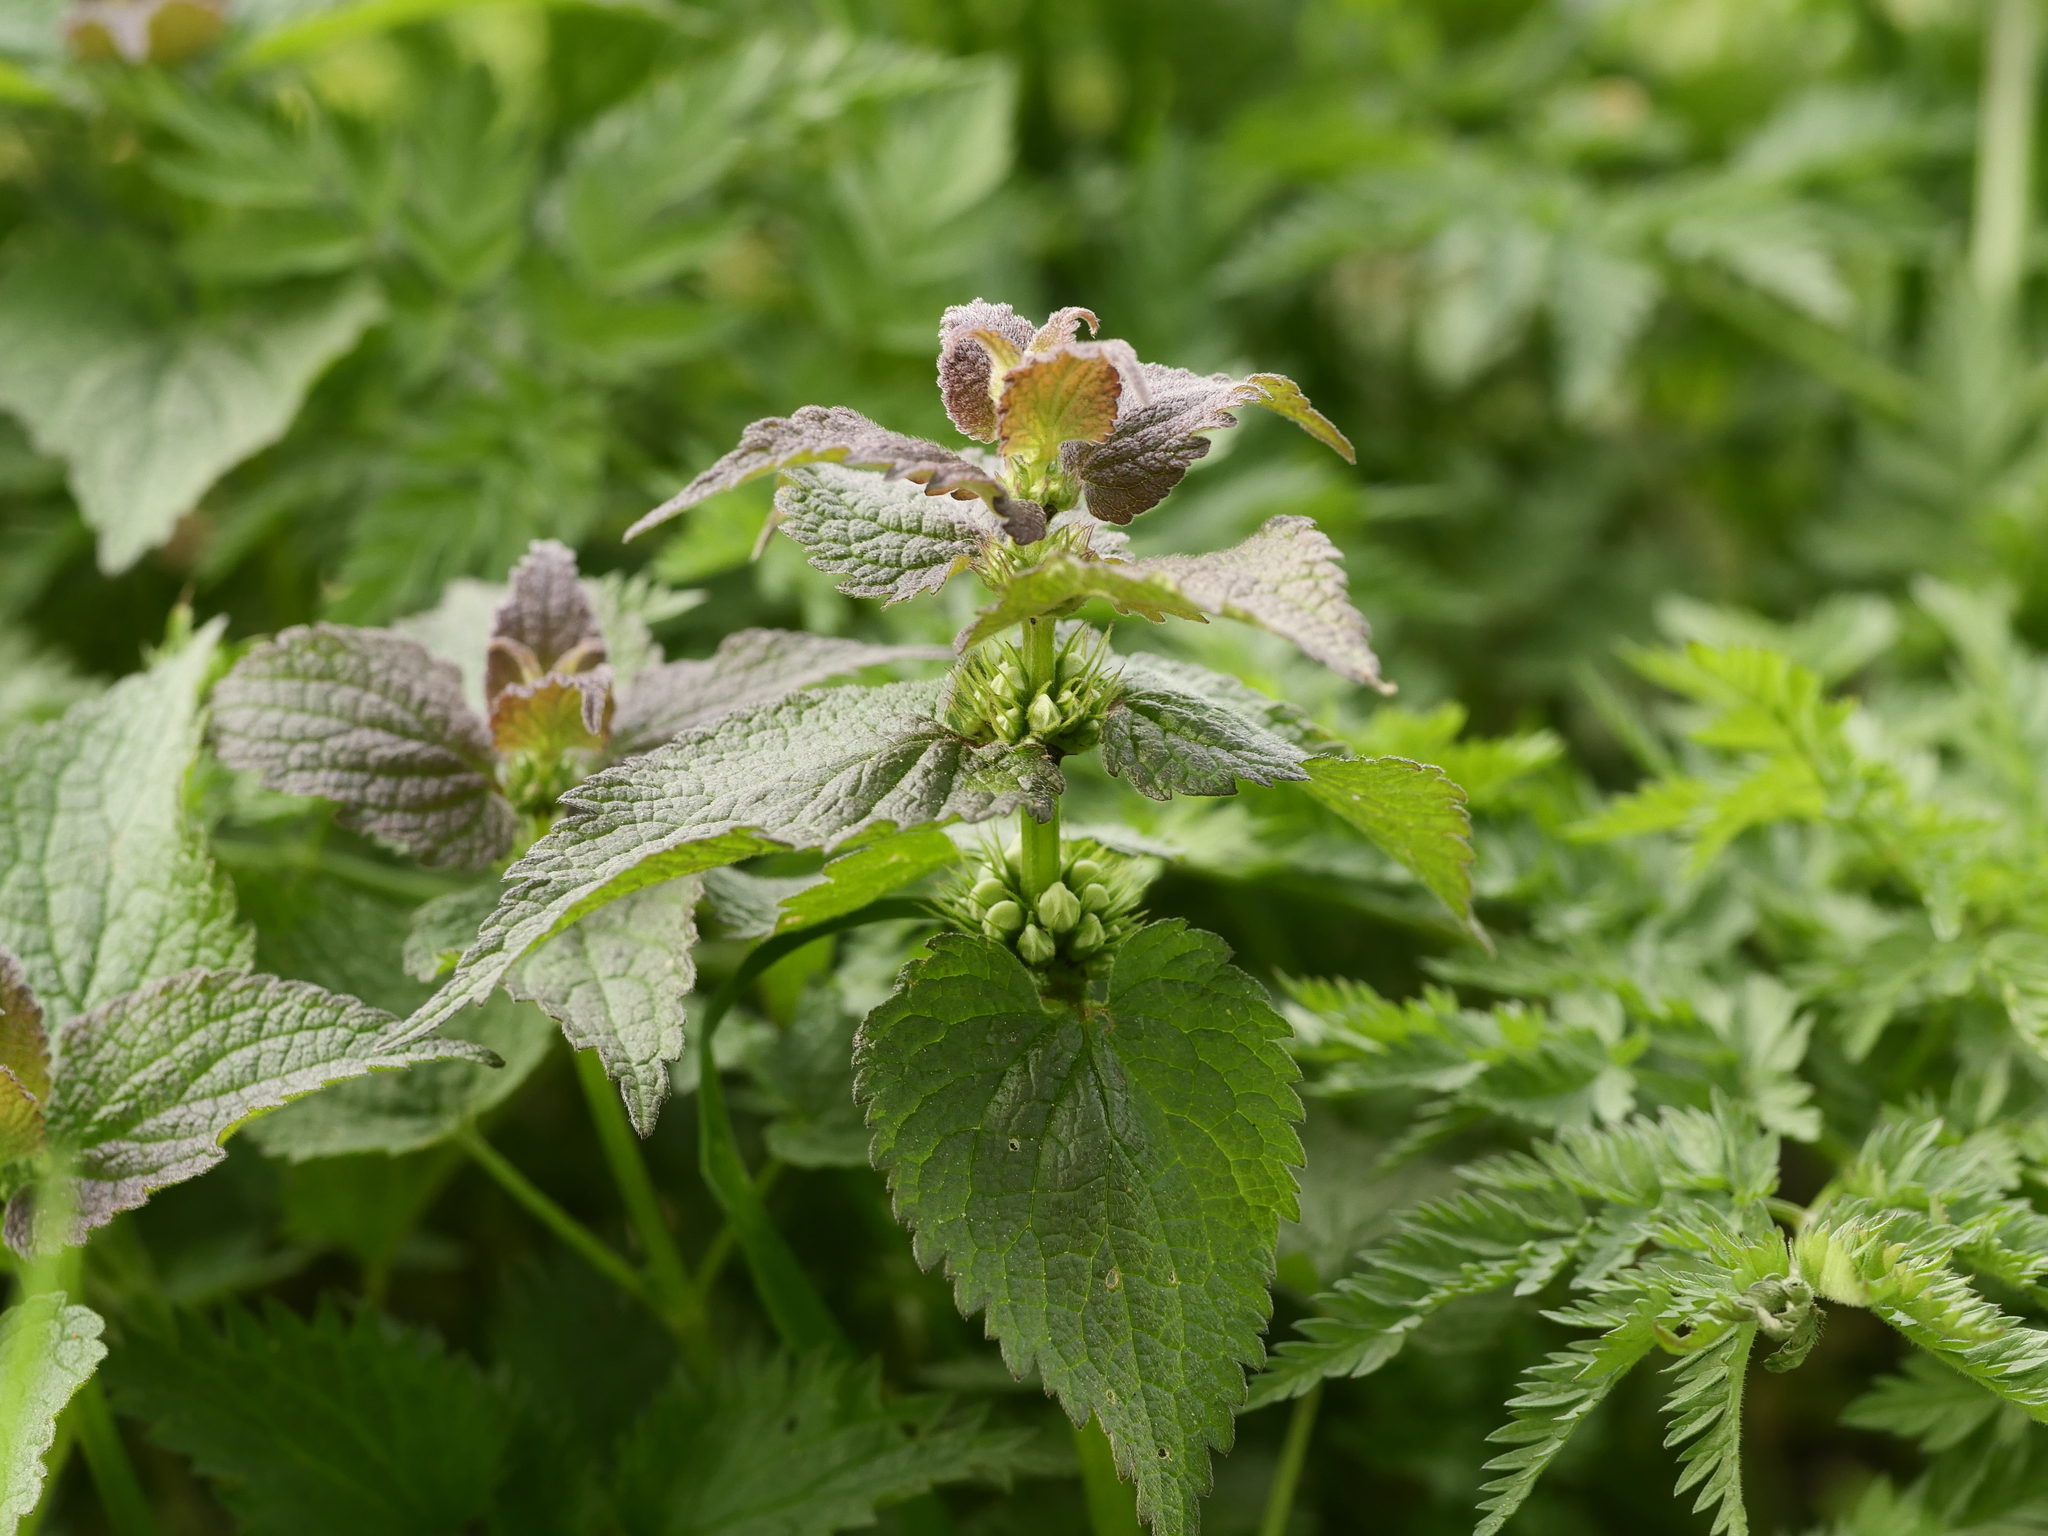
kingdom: Plantae
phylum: Tracheophyta
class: Magnoliopsida
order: Lamiales
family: Lamiaceae
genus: Lamium
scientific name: Lamium album
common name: White dead-nettle
